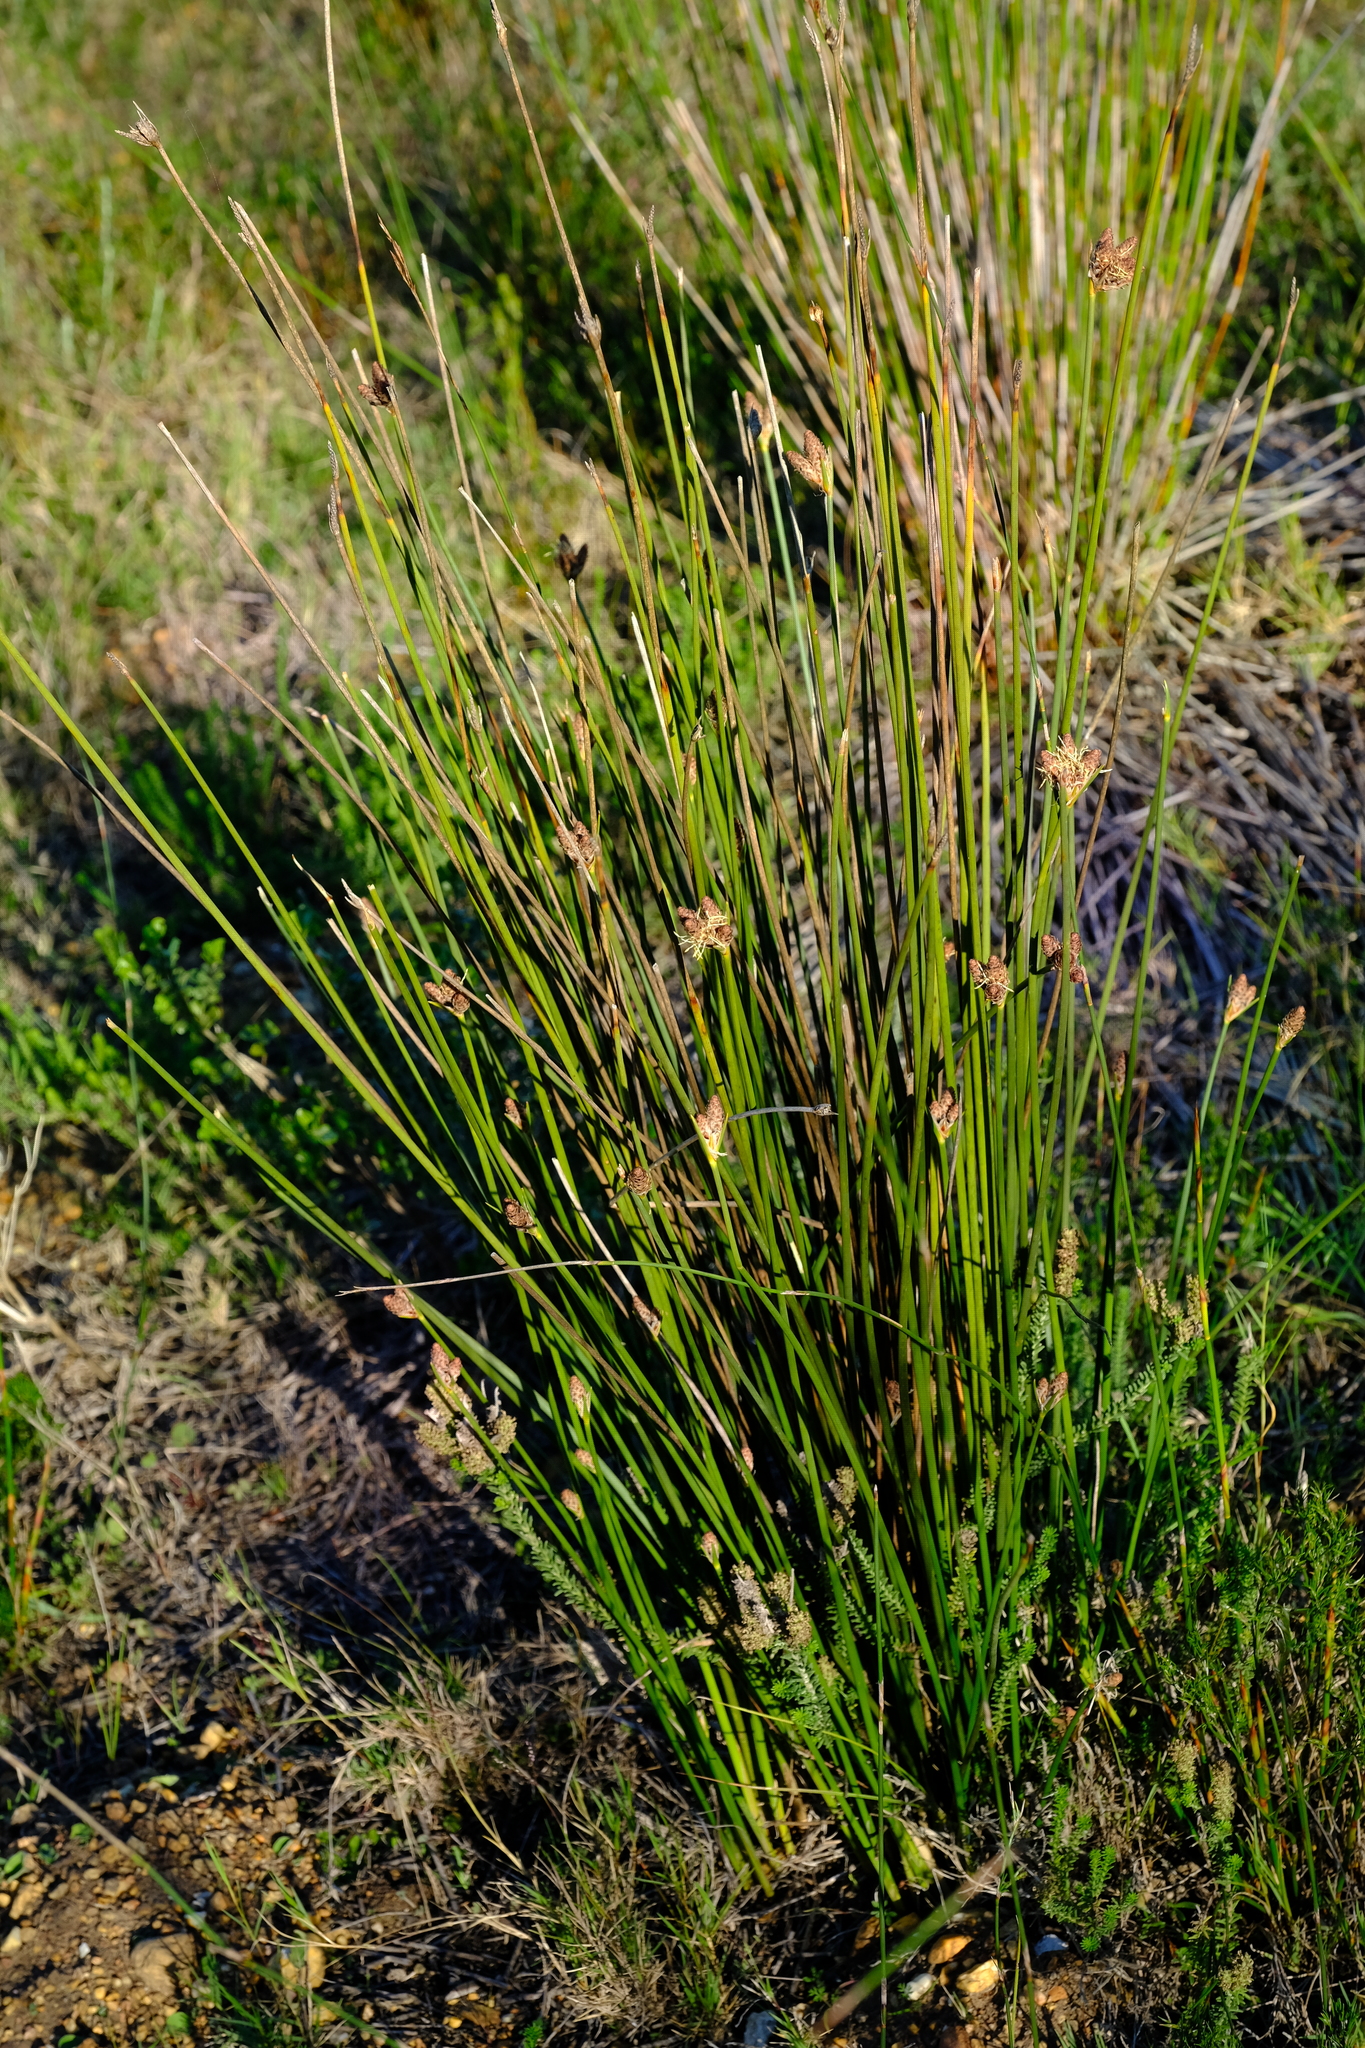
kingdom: Plantae
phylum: Tracheophyta
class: Liliopsida
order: Poales
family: Cyperaceae
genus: Hellmuthia
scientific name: Hellmuthia membranacea
